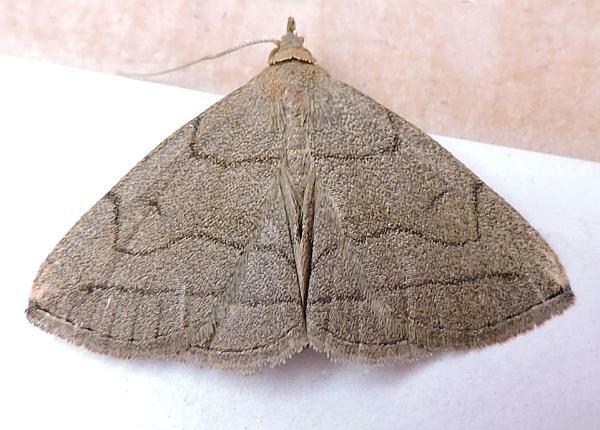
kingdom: Animalia
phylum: Arthropoda
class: Insecta
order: Lepidoptera
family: Erebidae
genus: Zanclognatha
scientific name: Zanclognatha pedipilalis
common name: Grayish fan-foot
